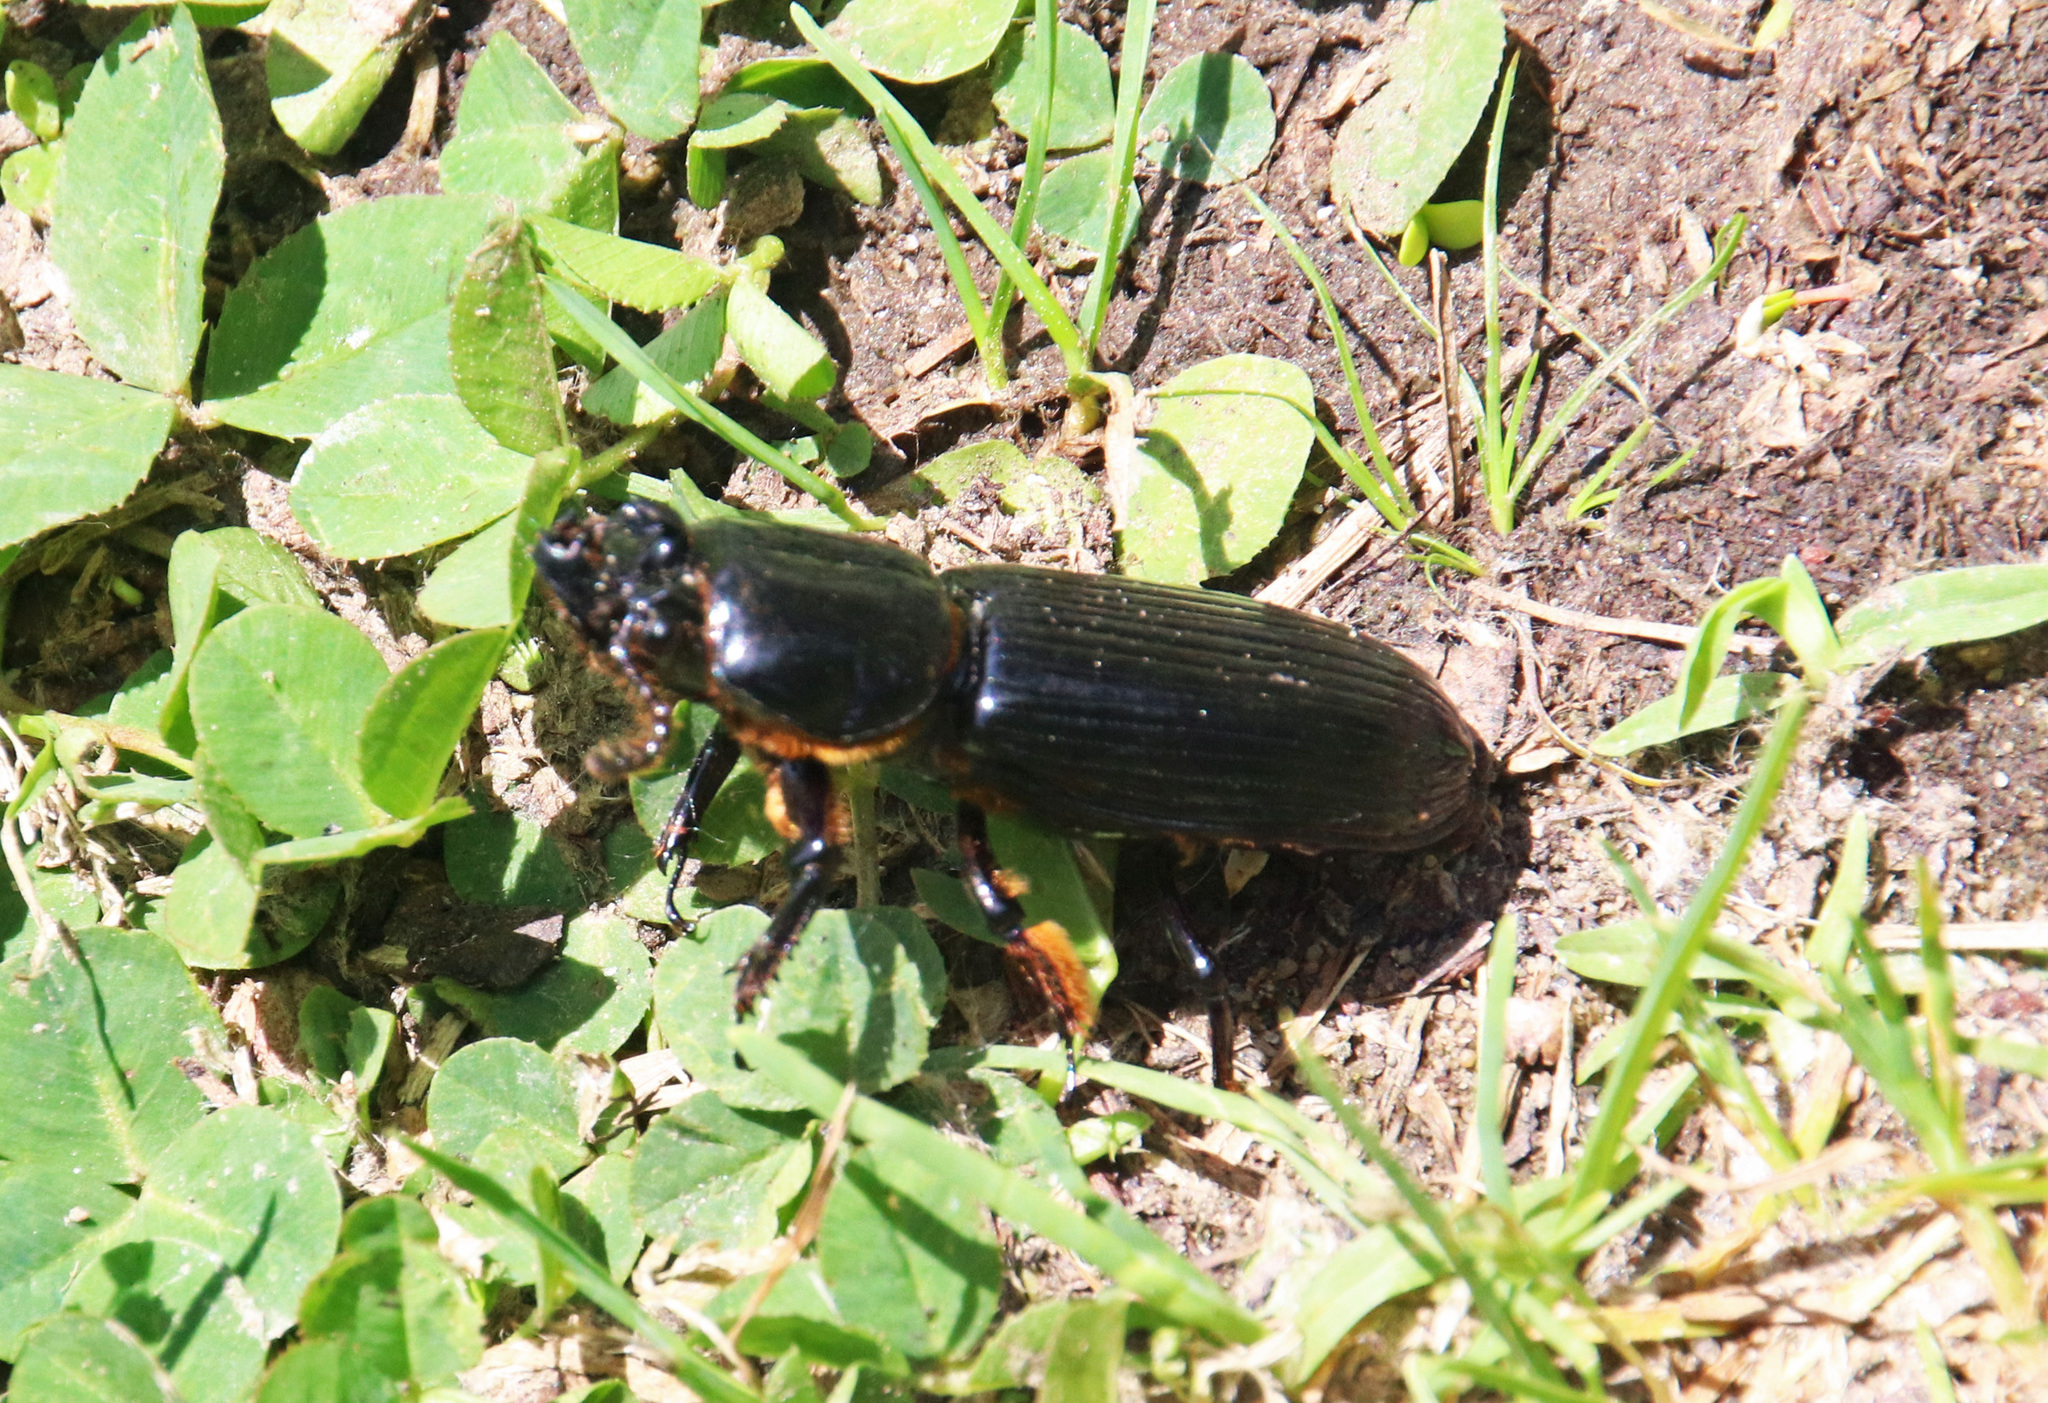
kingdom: Animalia
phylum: Arthropoda
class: Insecta
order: Coleoptera
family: Passalidae
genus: Odontotaenius
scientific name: Odontotaenius disjunctus
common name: Patent leather beetle
